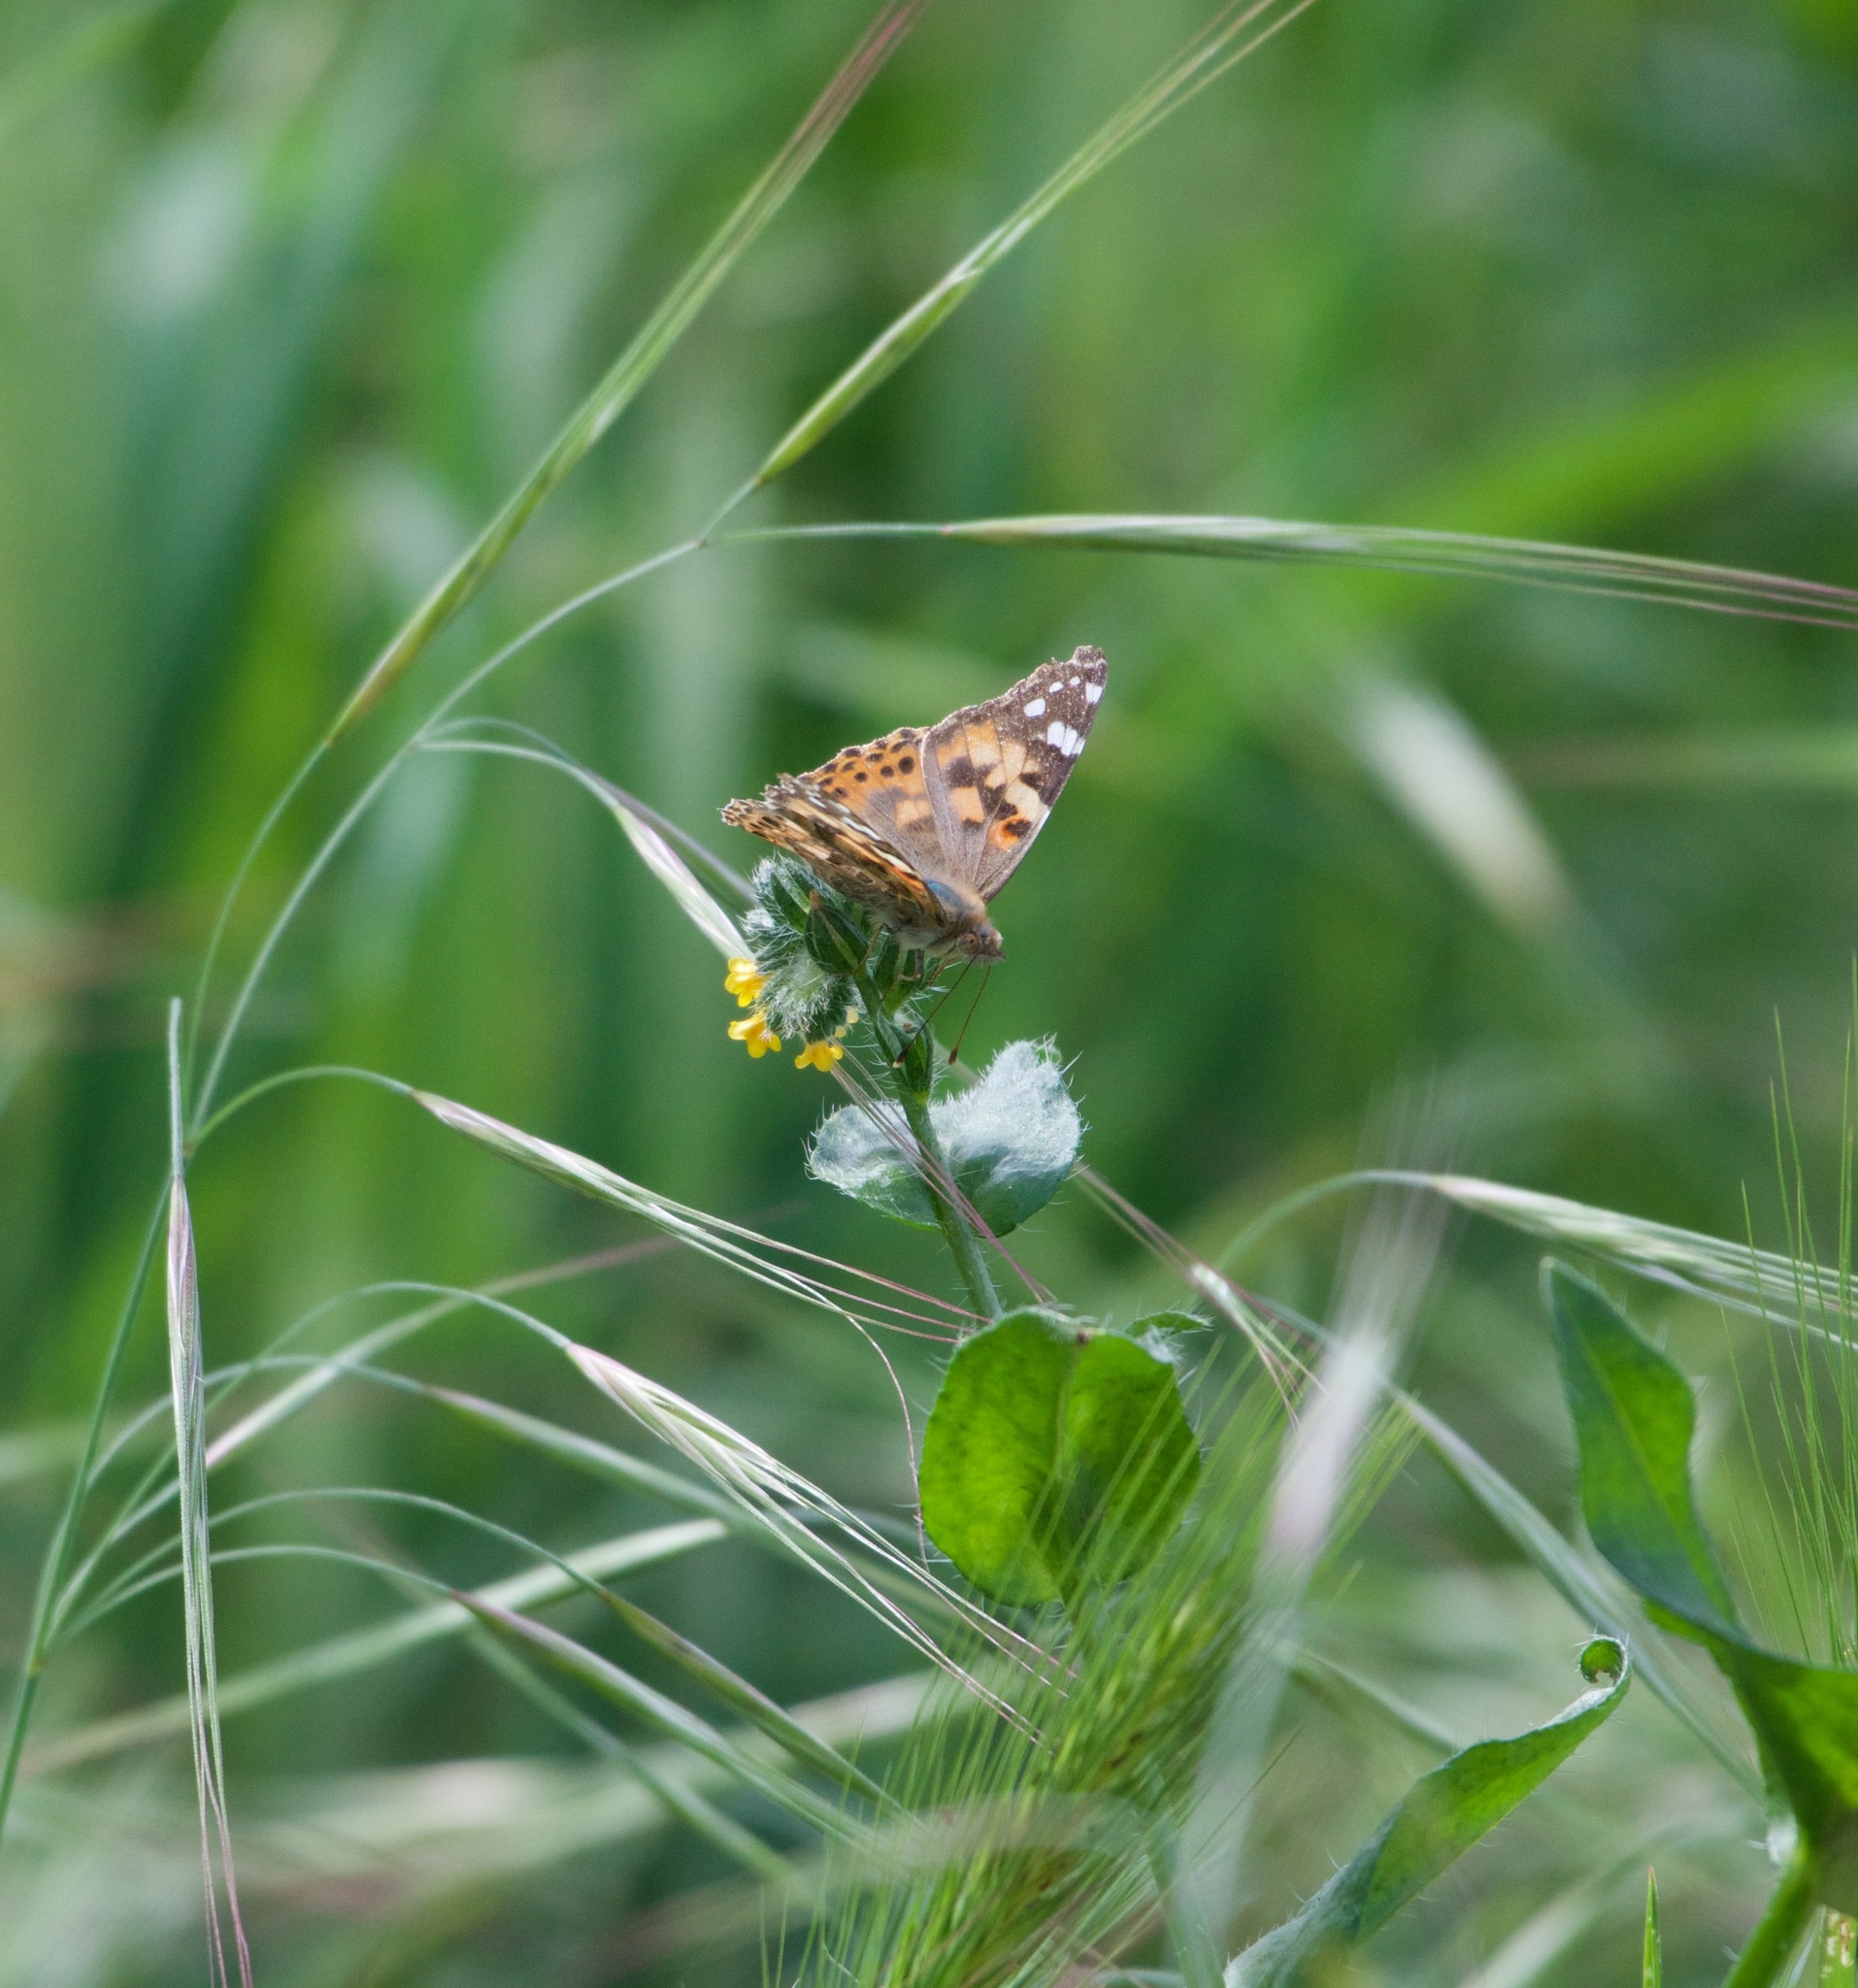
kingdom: Animalia
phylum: Arthropoda
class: Insecta
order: Lepidoptera
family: Nymphalidae
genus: Vanessa
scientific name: Vanessa cardui
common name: Painted lady
